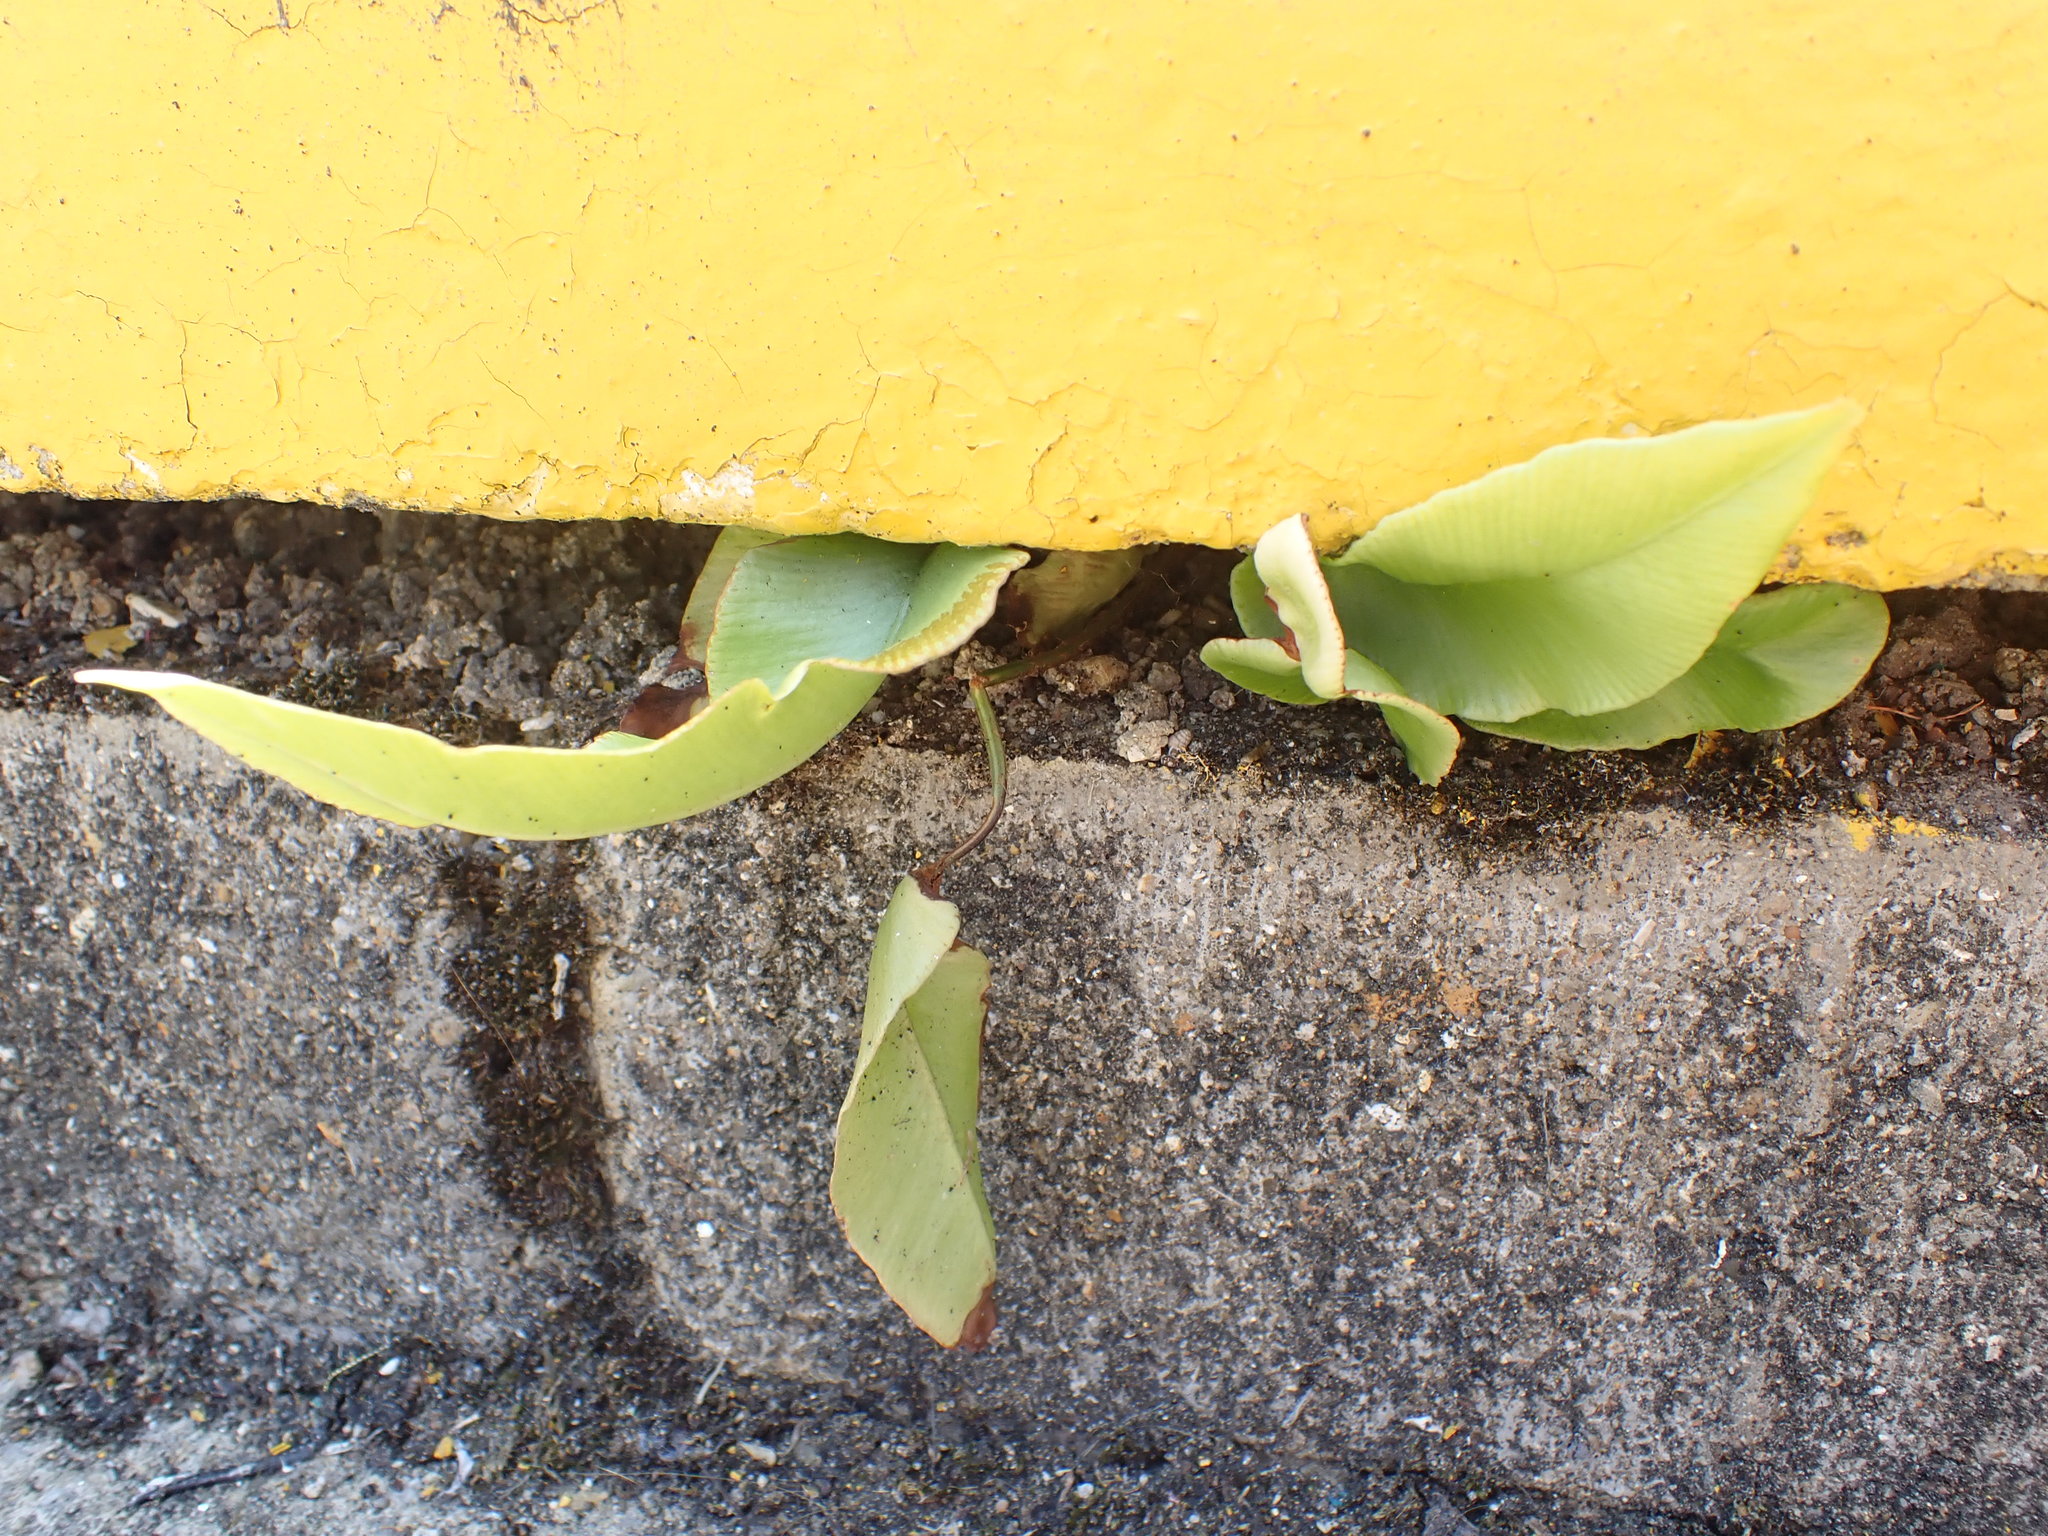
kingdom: Plantae
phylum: Tracheophyta
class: Polypodiopsida
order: Polypodiales
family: Aspleniaceae
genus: Asplenium
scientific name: Asplenium scolopendrium
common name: Hart's-tongue fern
